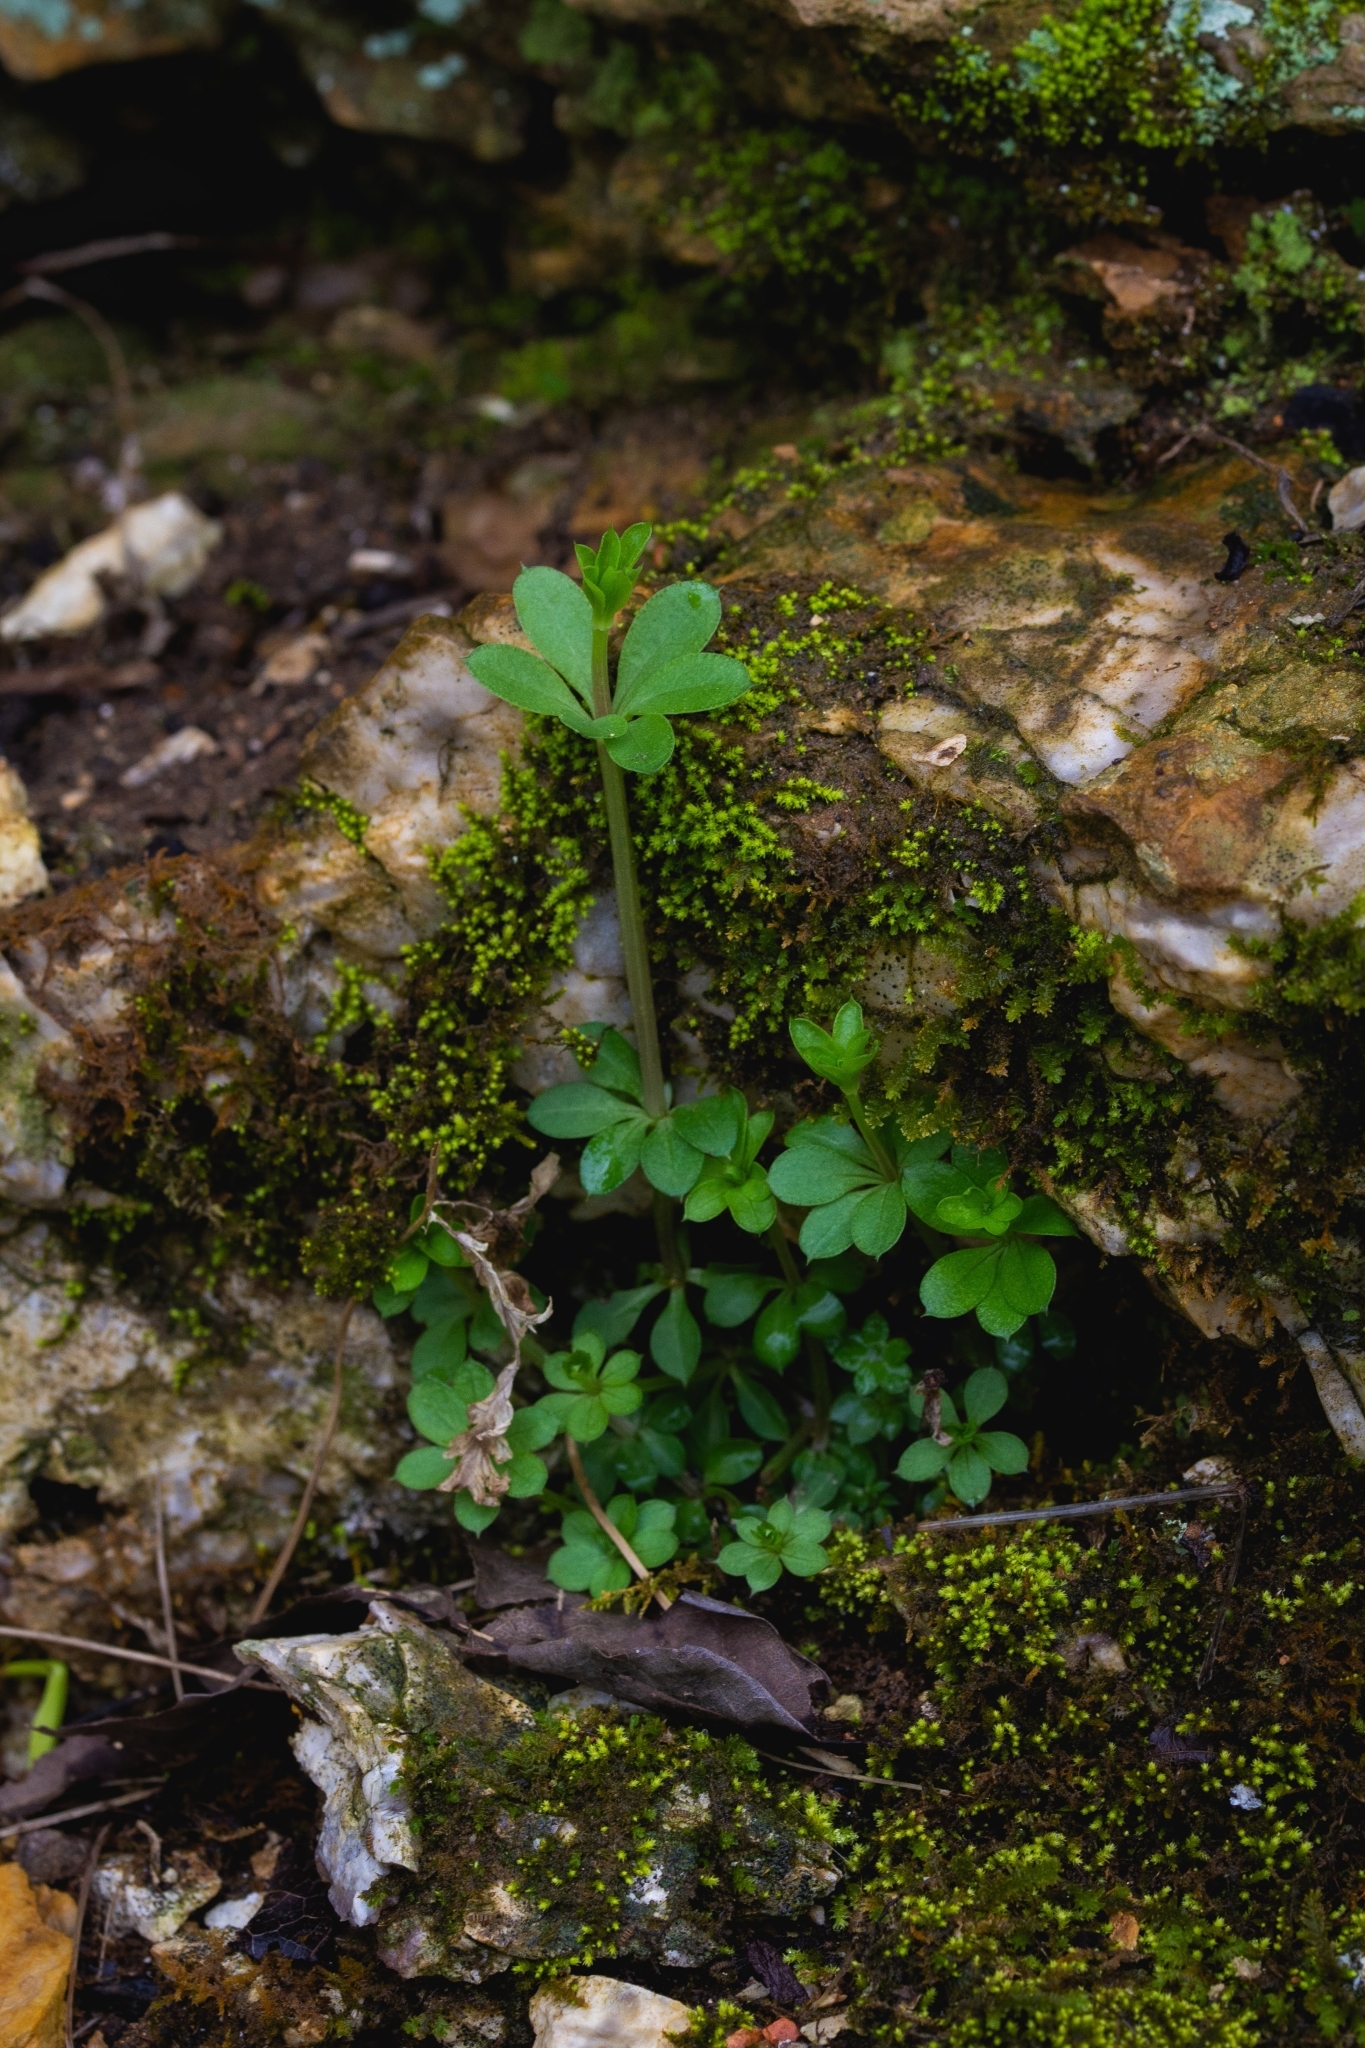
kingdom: Plantae
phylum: Tracheophyta
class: Magnoliopsida
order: Gentianales
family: Rubiaceae
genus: Galium
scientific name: Galium triflorum
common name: Fragrant bedstraw
